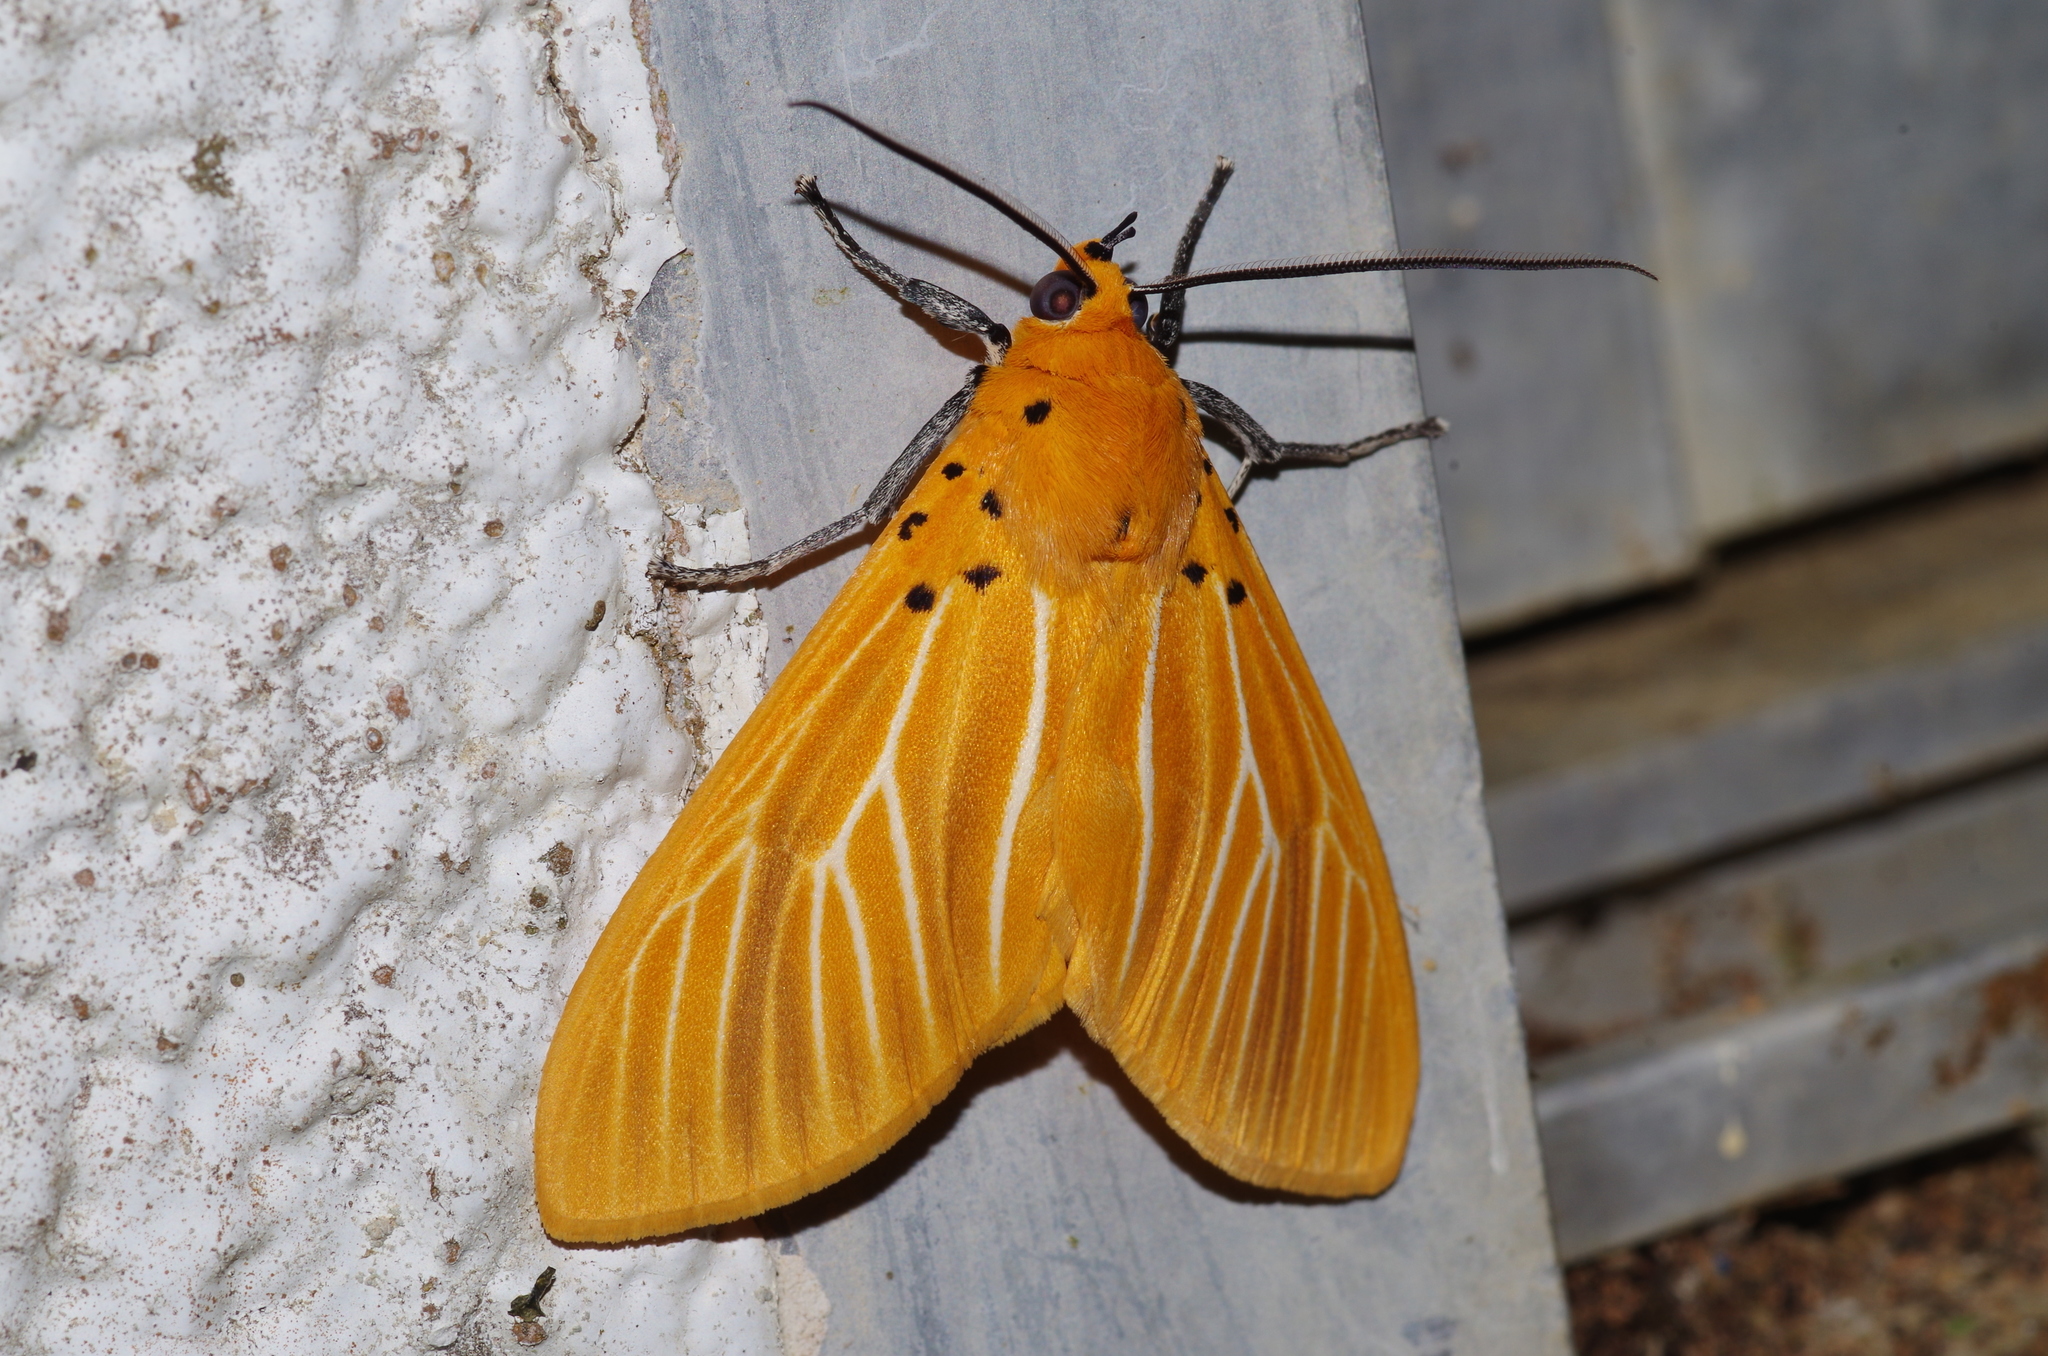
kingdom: Animalia
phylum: Arthropoda
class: Insecta
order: Lepidoptera
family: Erebidae
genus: Asota
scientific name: Asota egens
